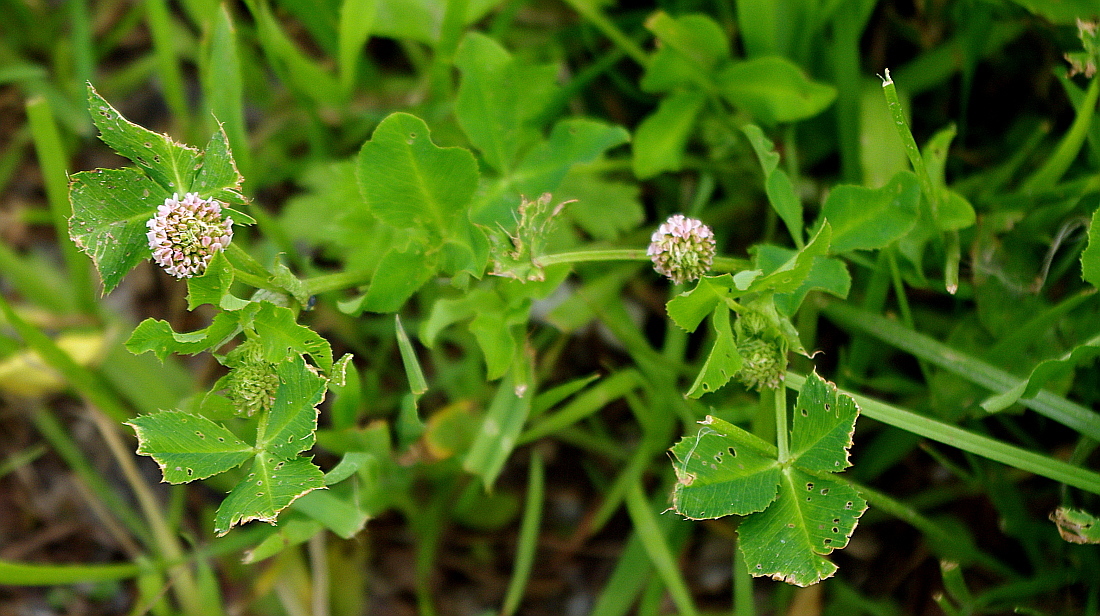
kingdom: Plantae
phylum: Tracheophyta
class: Magnoliopsida
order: Fabales
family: Fabaceae
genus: Trifolium
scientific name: Trifolium hybridum
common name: Alsike clover
